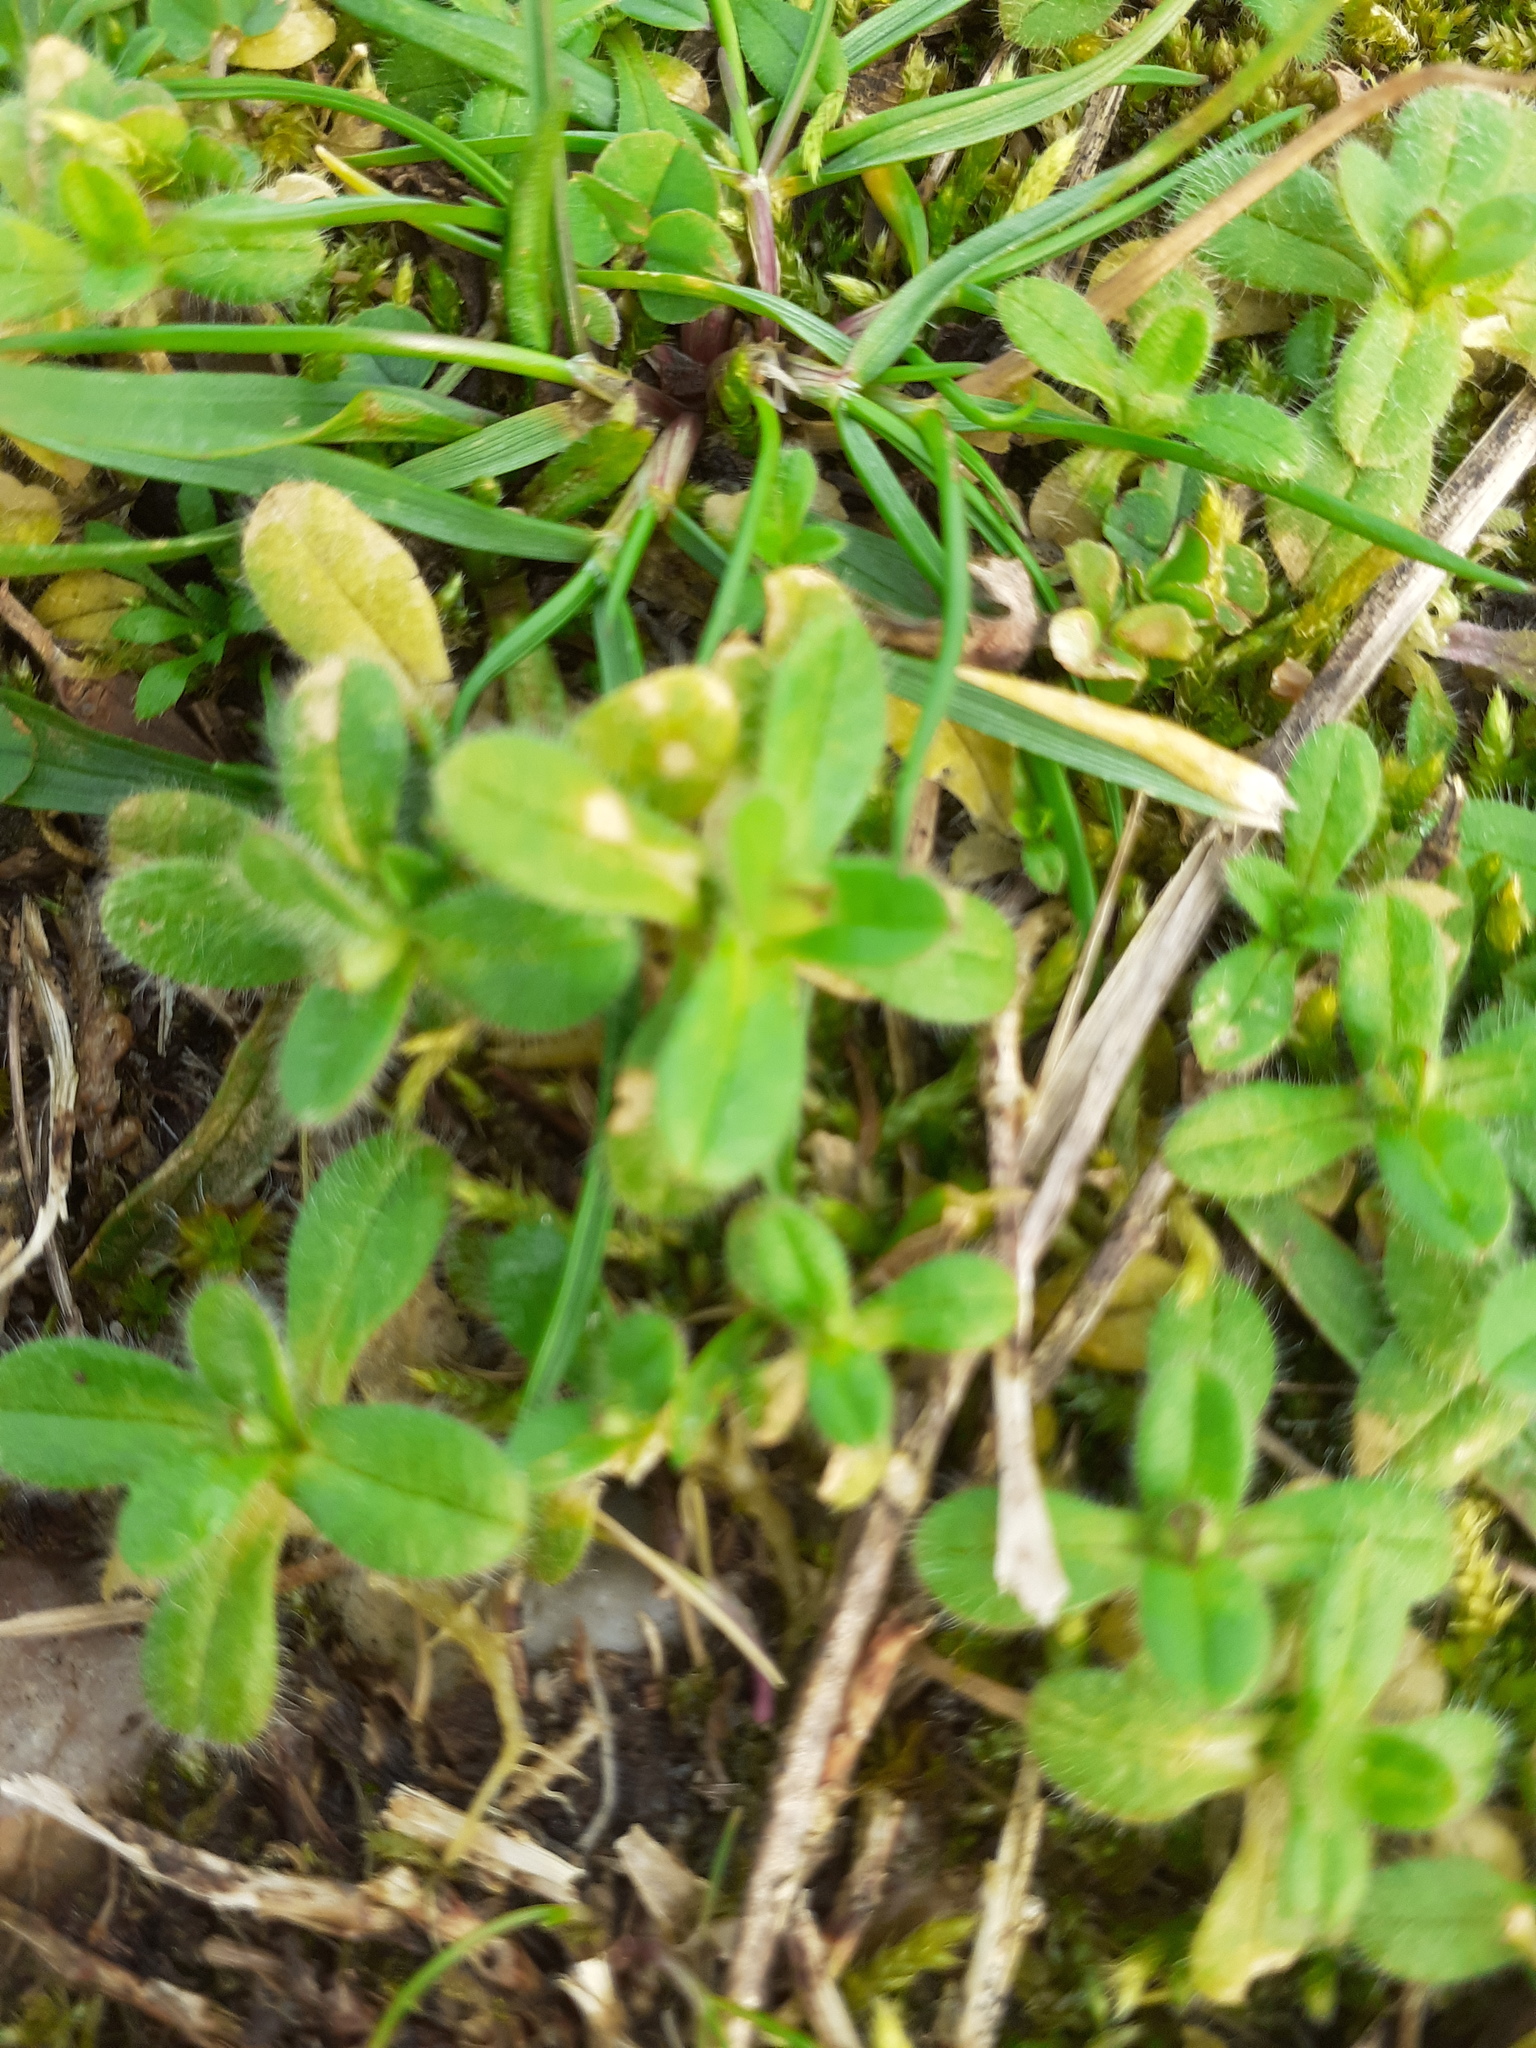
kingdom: Plantae
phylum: Tracheophyta
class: Magnoliopsida
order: Caryophyllales
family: Caryophyllaceae
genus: Cerastium
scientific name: Cerastium glomeratum
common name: Sticky chickweed
